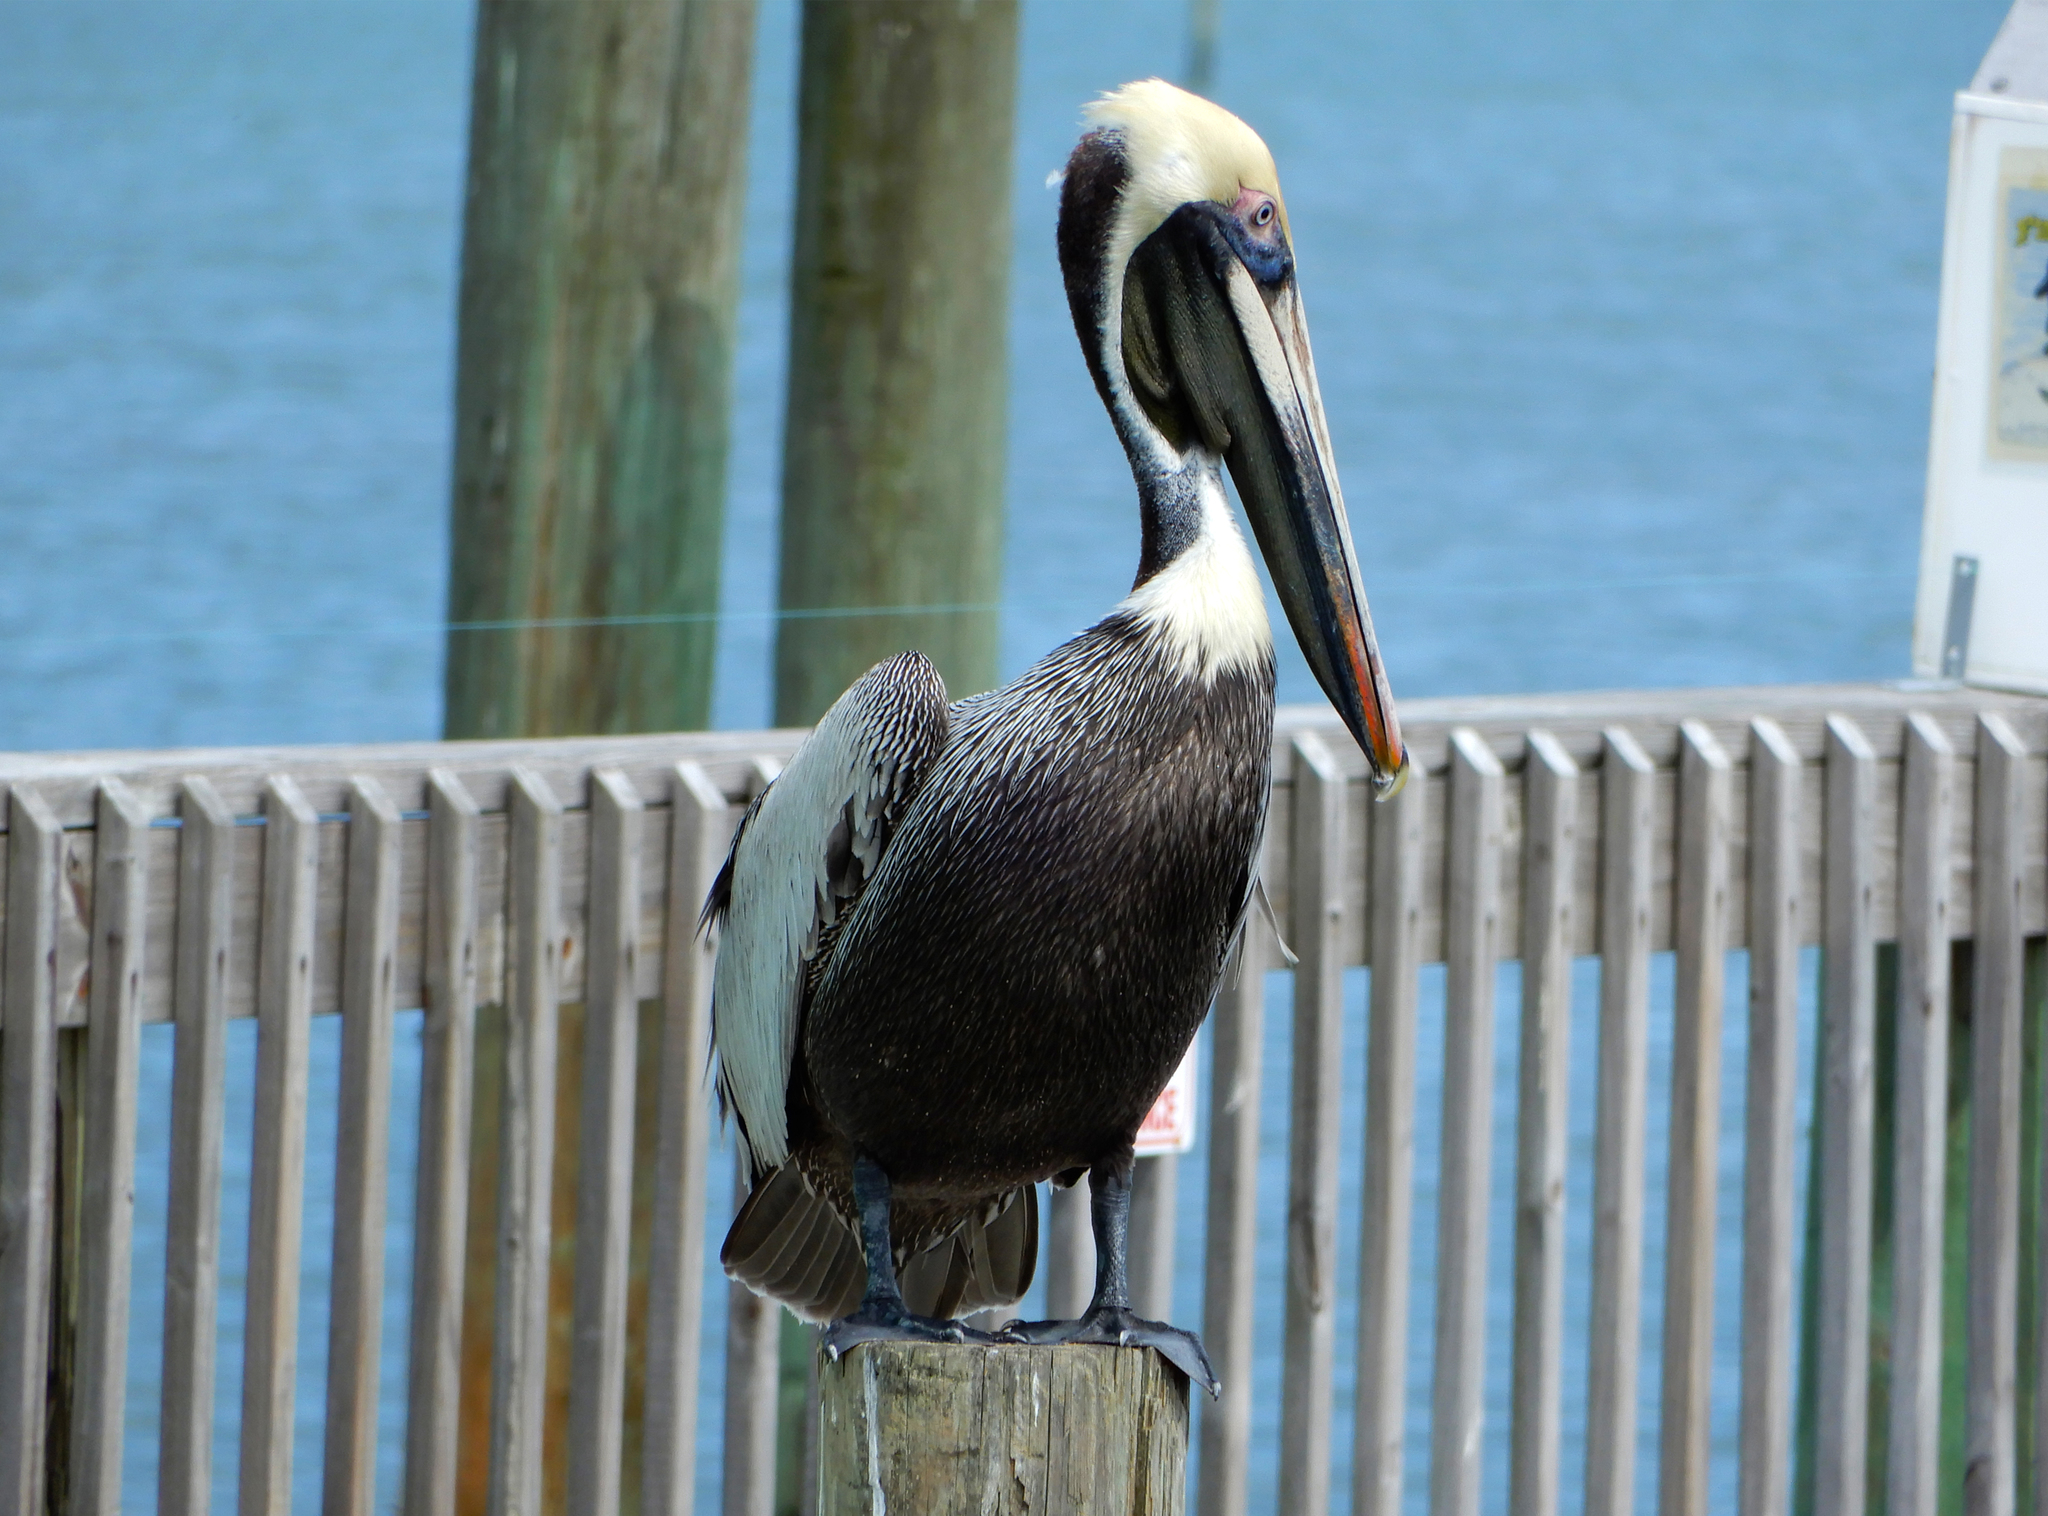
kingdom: Animalia
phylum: Chordata
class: Aves
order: Pelecaniformes
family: Pelecanidae
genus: Pelecanus
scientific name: Pelecanus occidentalis
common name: Brown pelican
